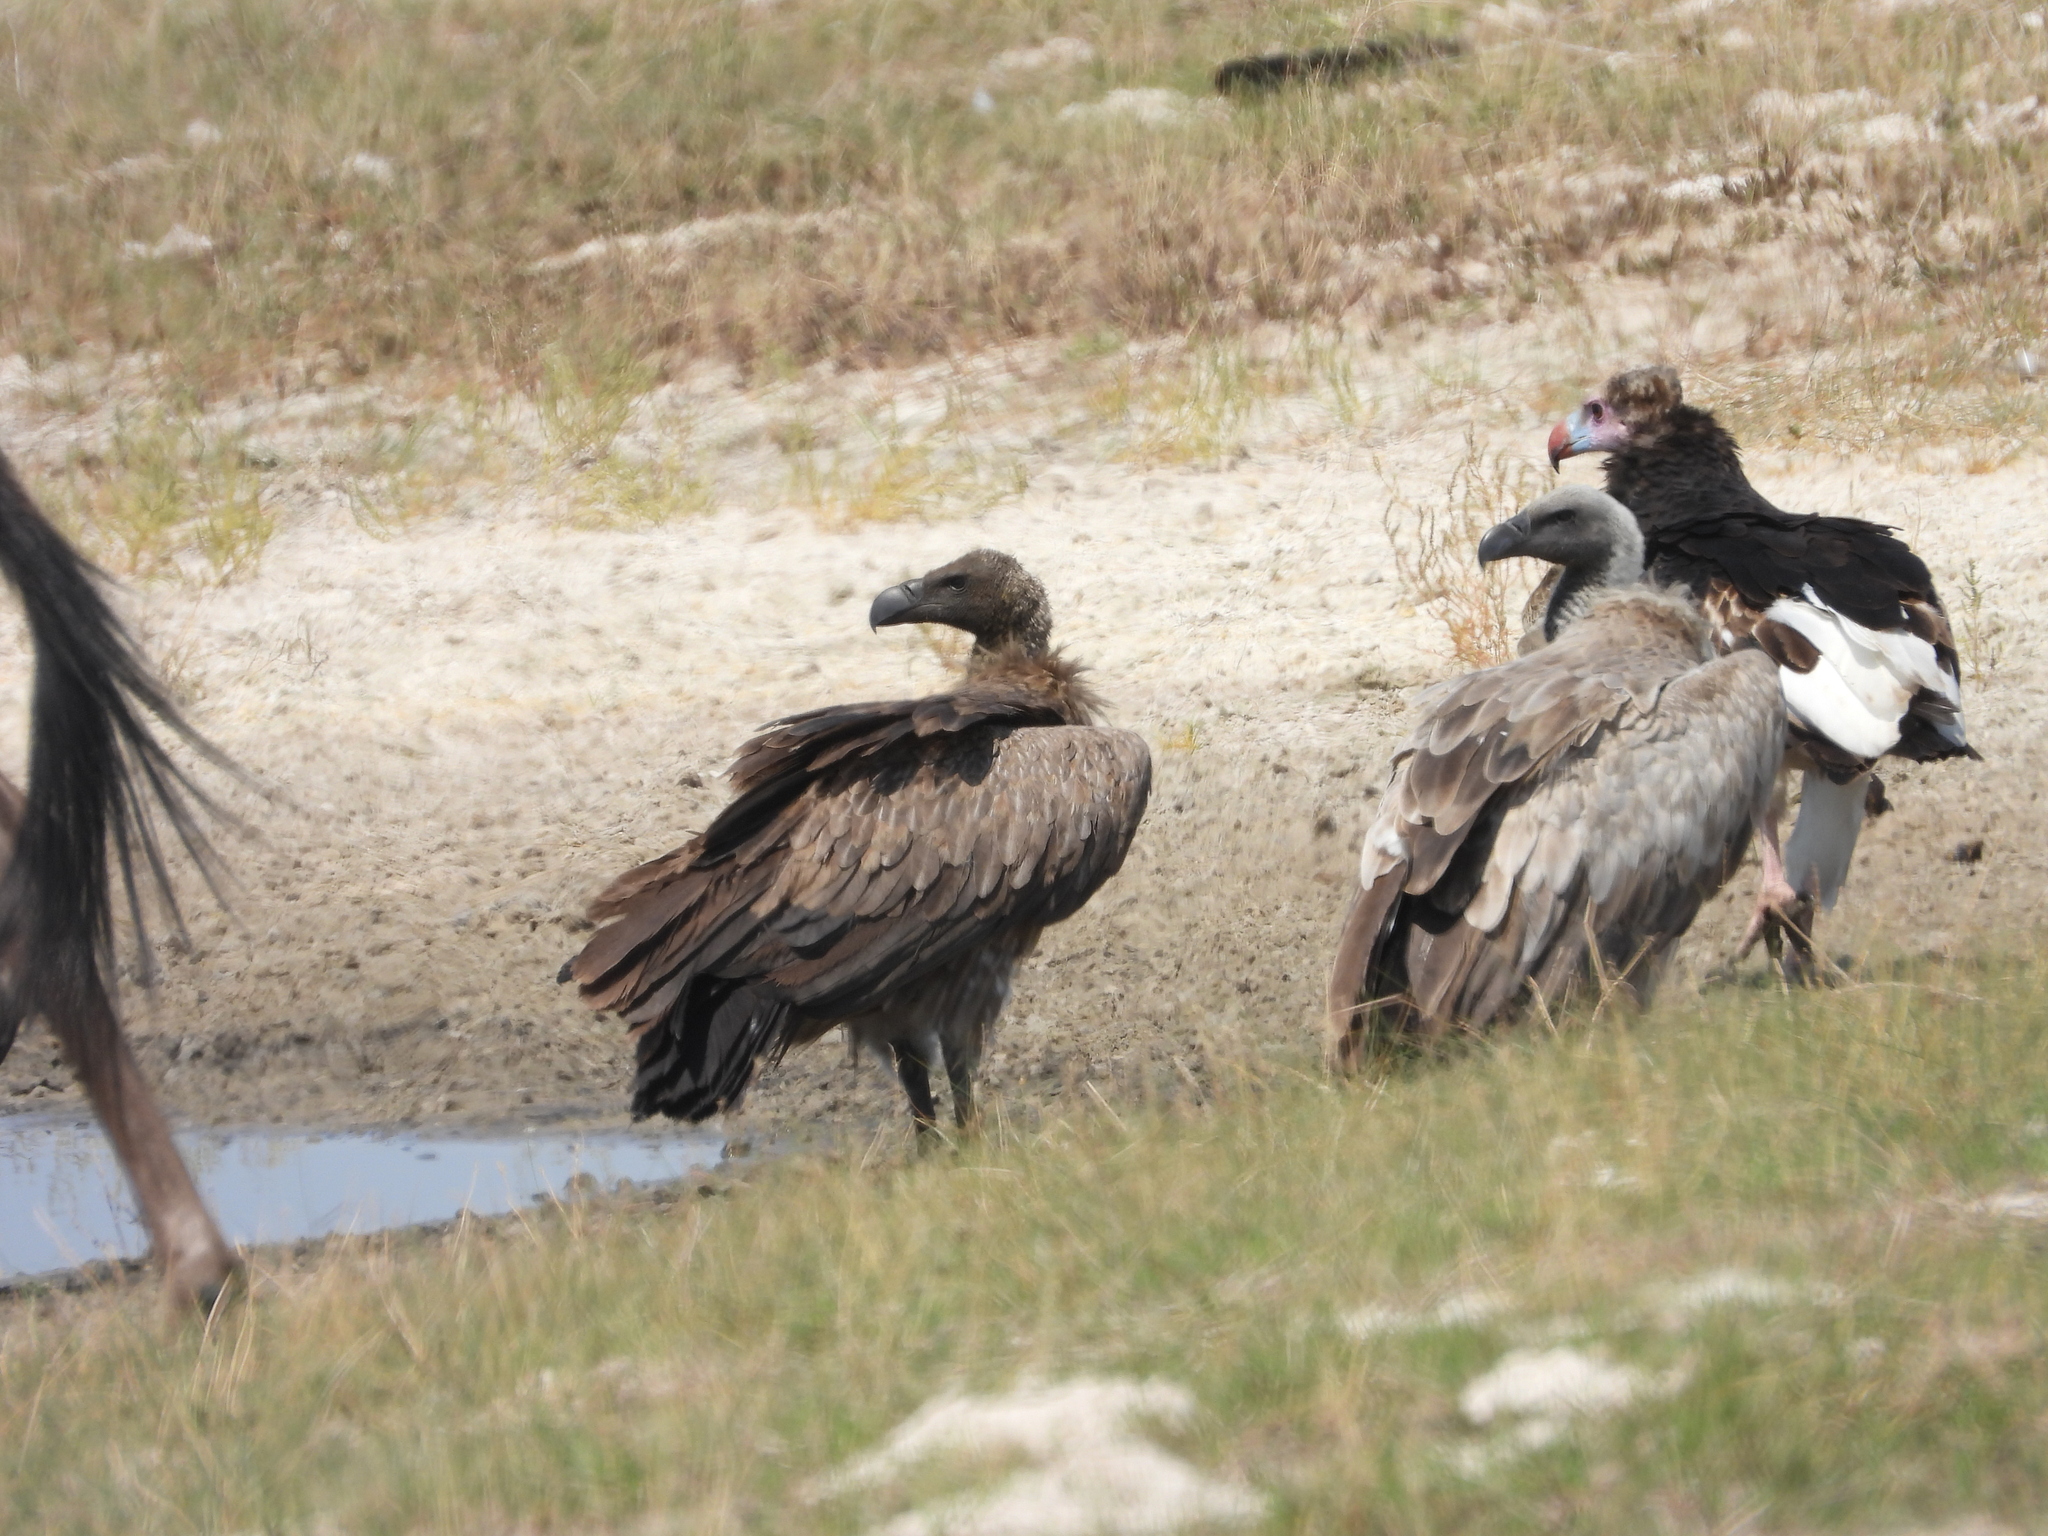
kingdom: Animalia
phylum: Chordata
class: Aves
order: Accipitriformes
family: Accipitridae
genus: Gyps
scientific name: Gyps africanus
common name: White-backed vulture
